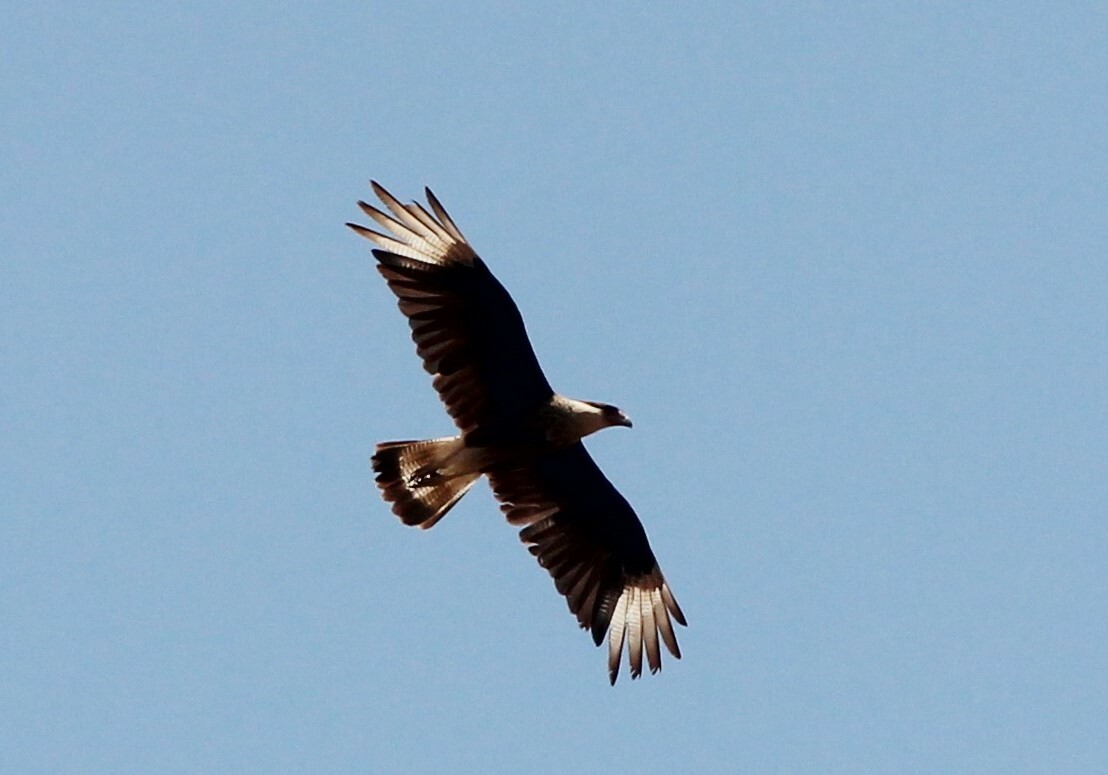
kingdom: Animalia
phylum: Chordata
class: Aves
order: Falconiformes
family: Falconidae
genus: Caracara
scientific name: Caracara plancus
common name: Southern caracara
